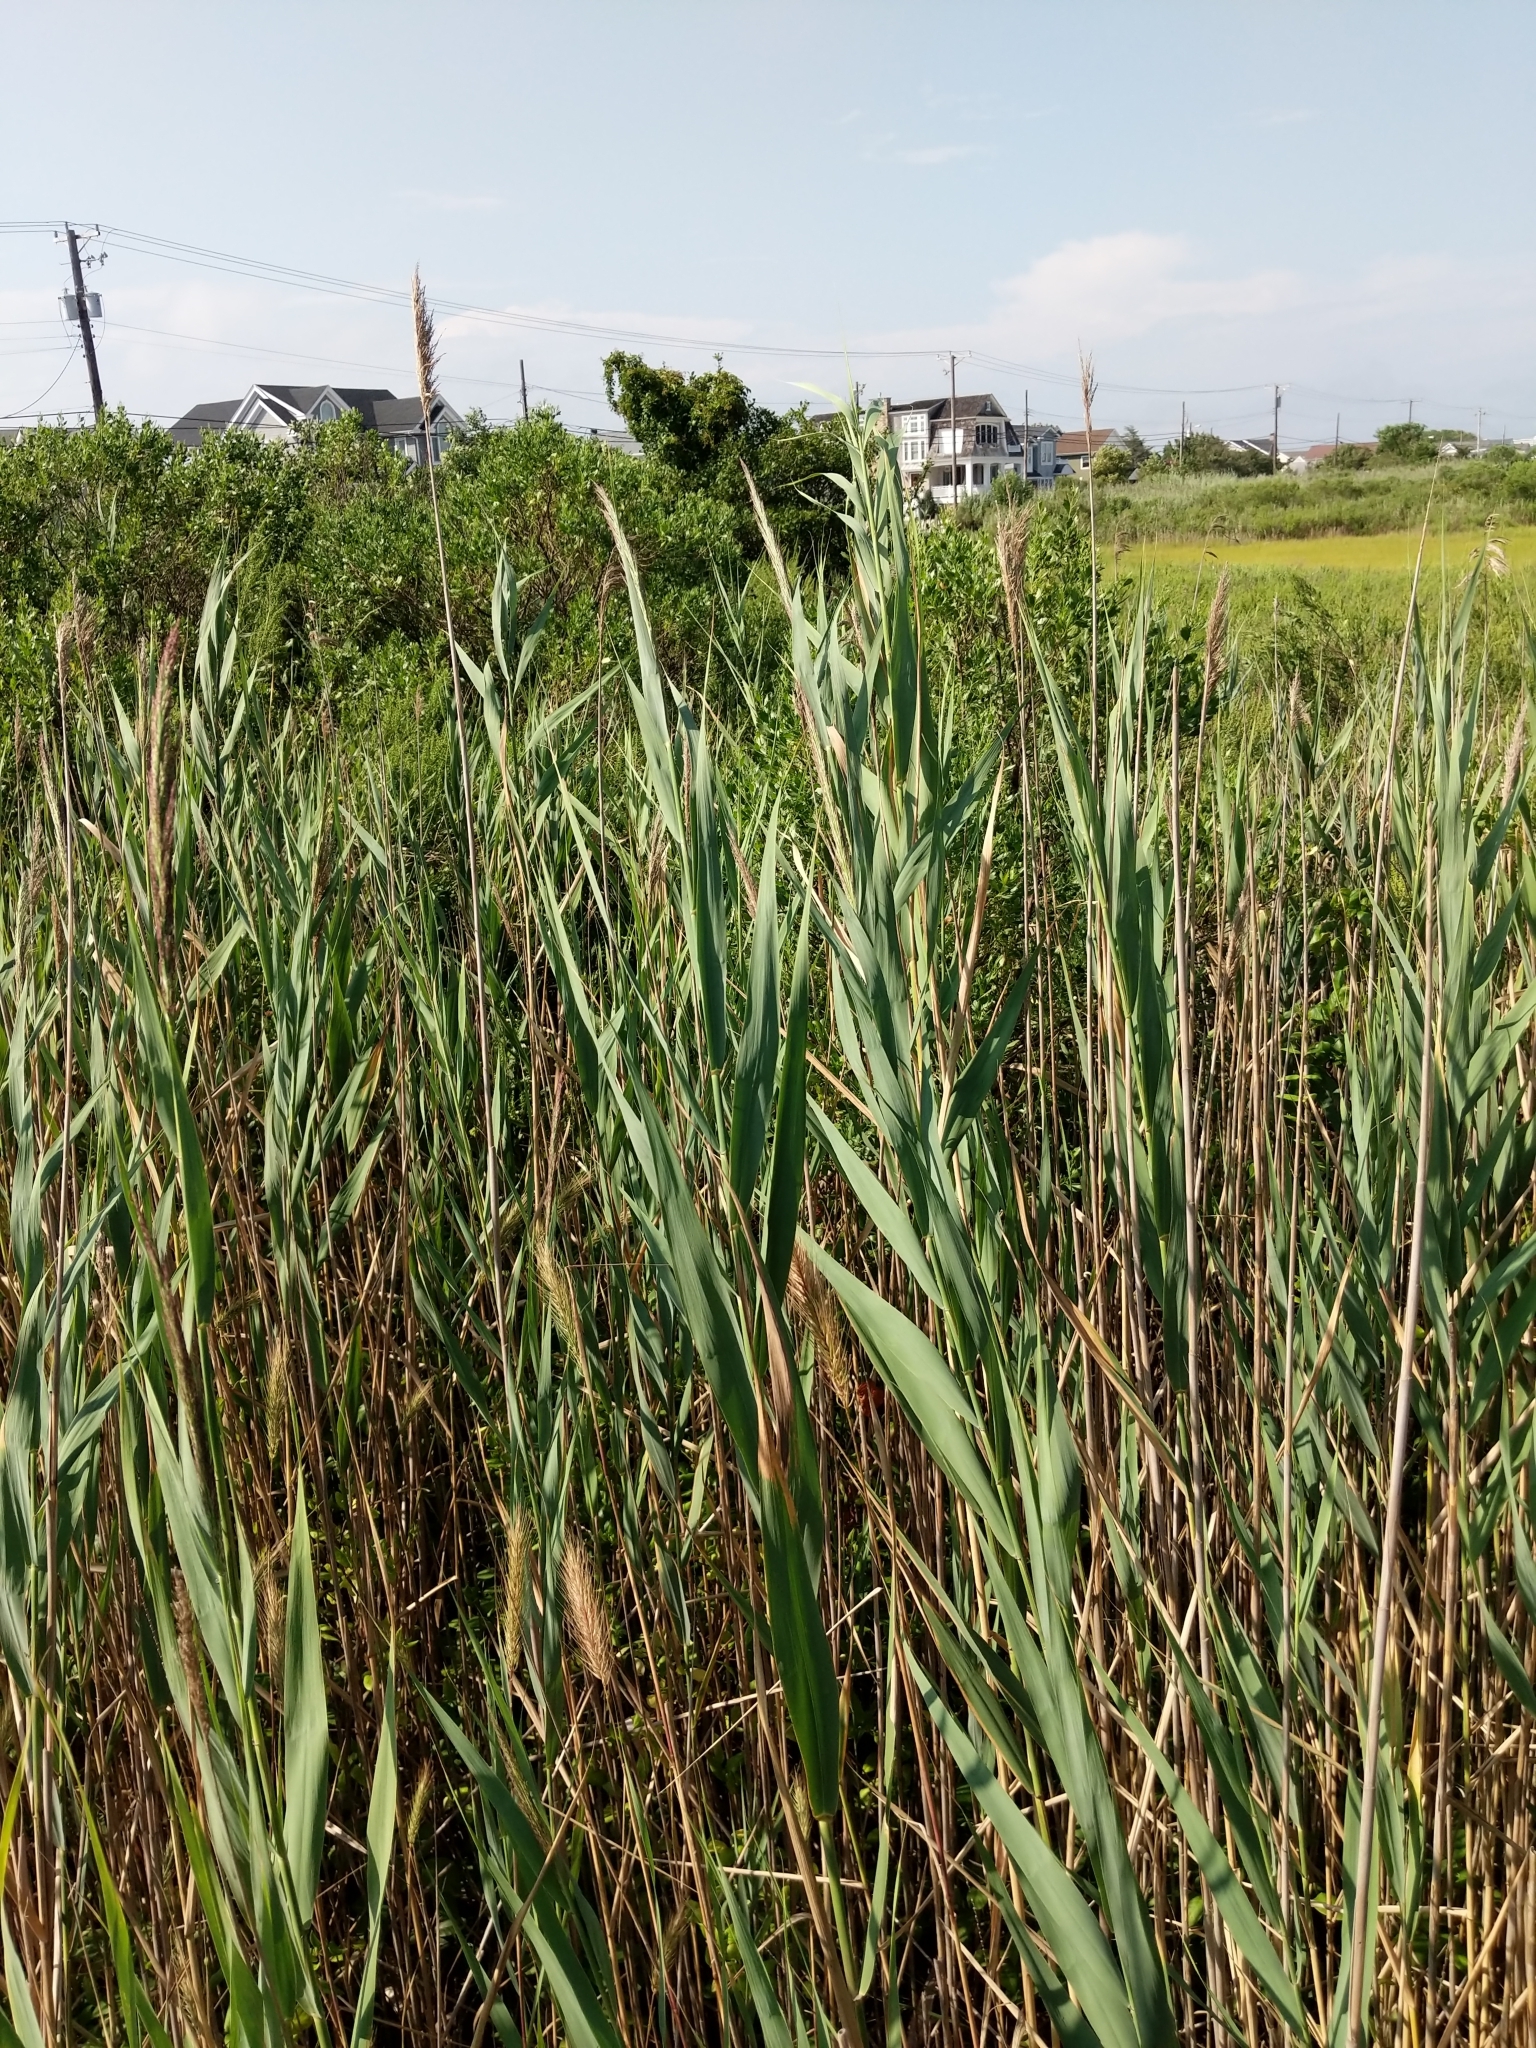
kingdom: Plantae
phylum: Tracheophyta
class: Liliopsida
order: Poales
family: Poaceae
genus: Phragmites
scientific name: Phragmites australis
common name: Common reed
